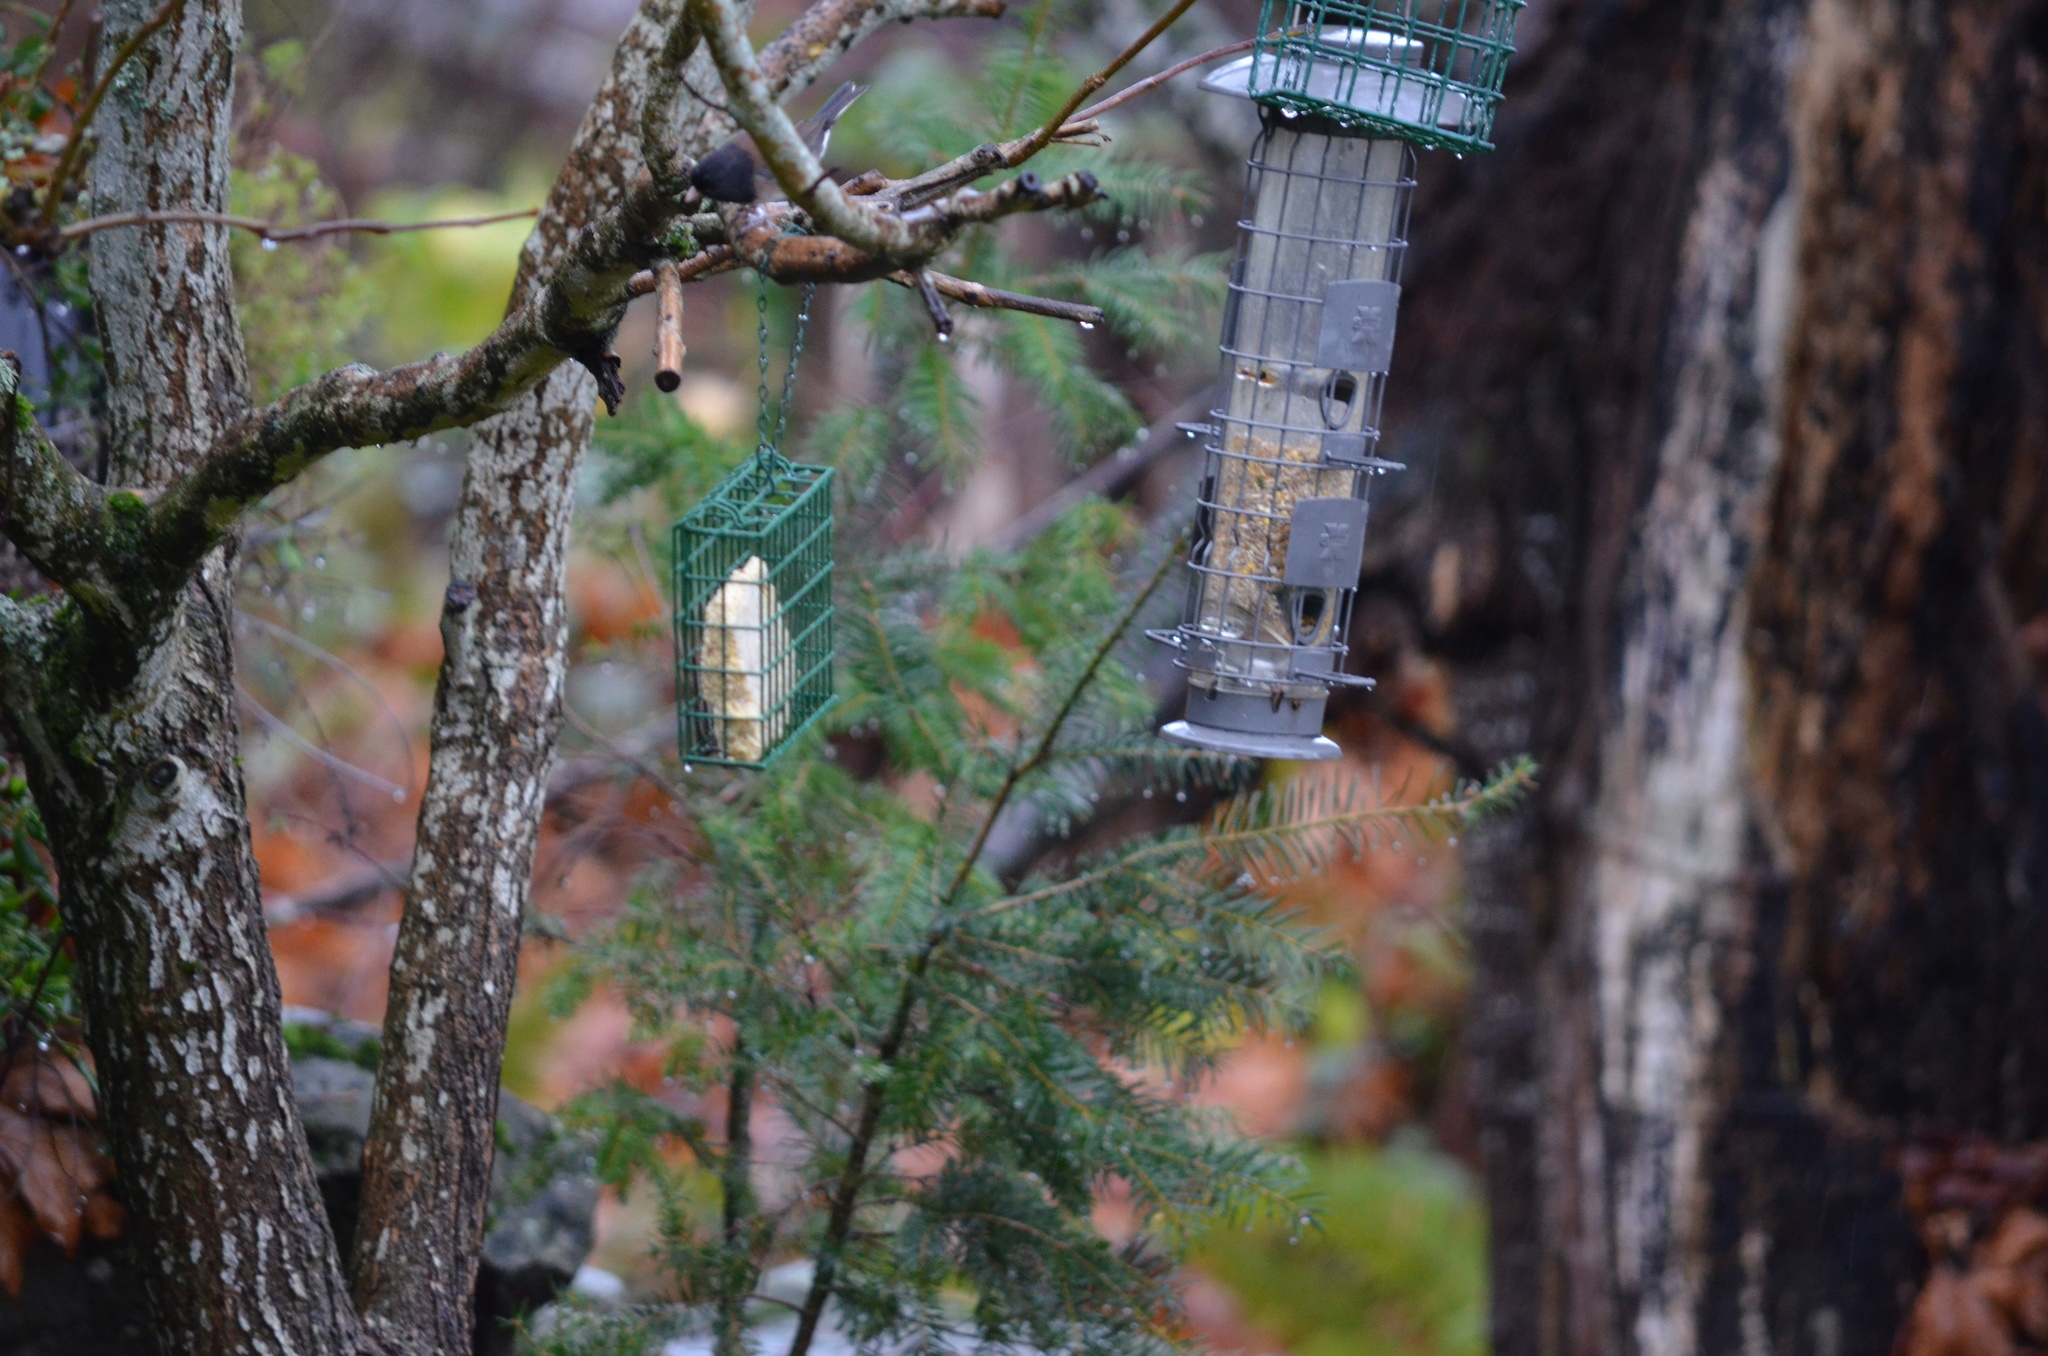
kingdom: Animalia
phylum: Chordata
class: Aves
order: Passeriformes
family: Passerellidae
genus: Junco
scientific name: Junco hyemalis
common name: Dark-eyed junco
